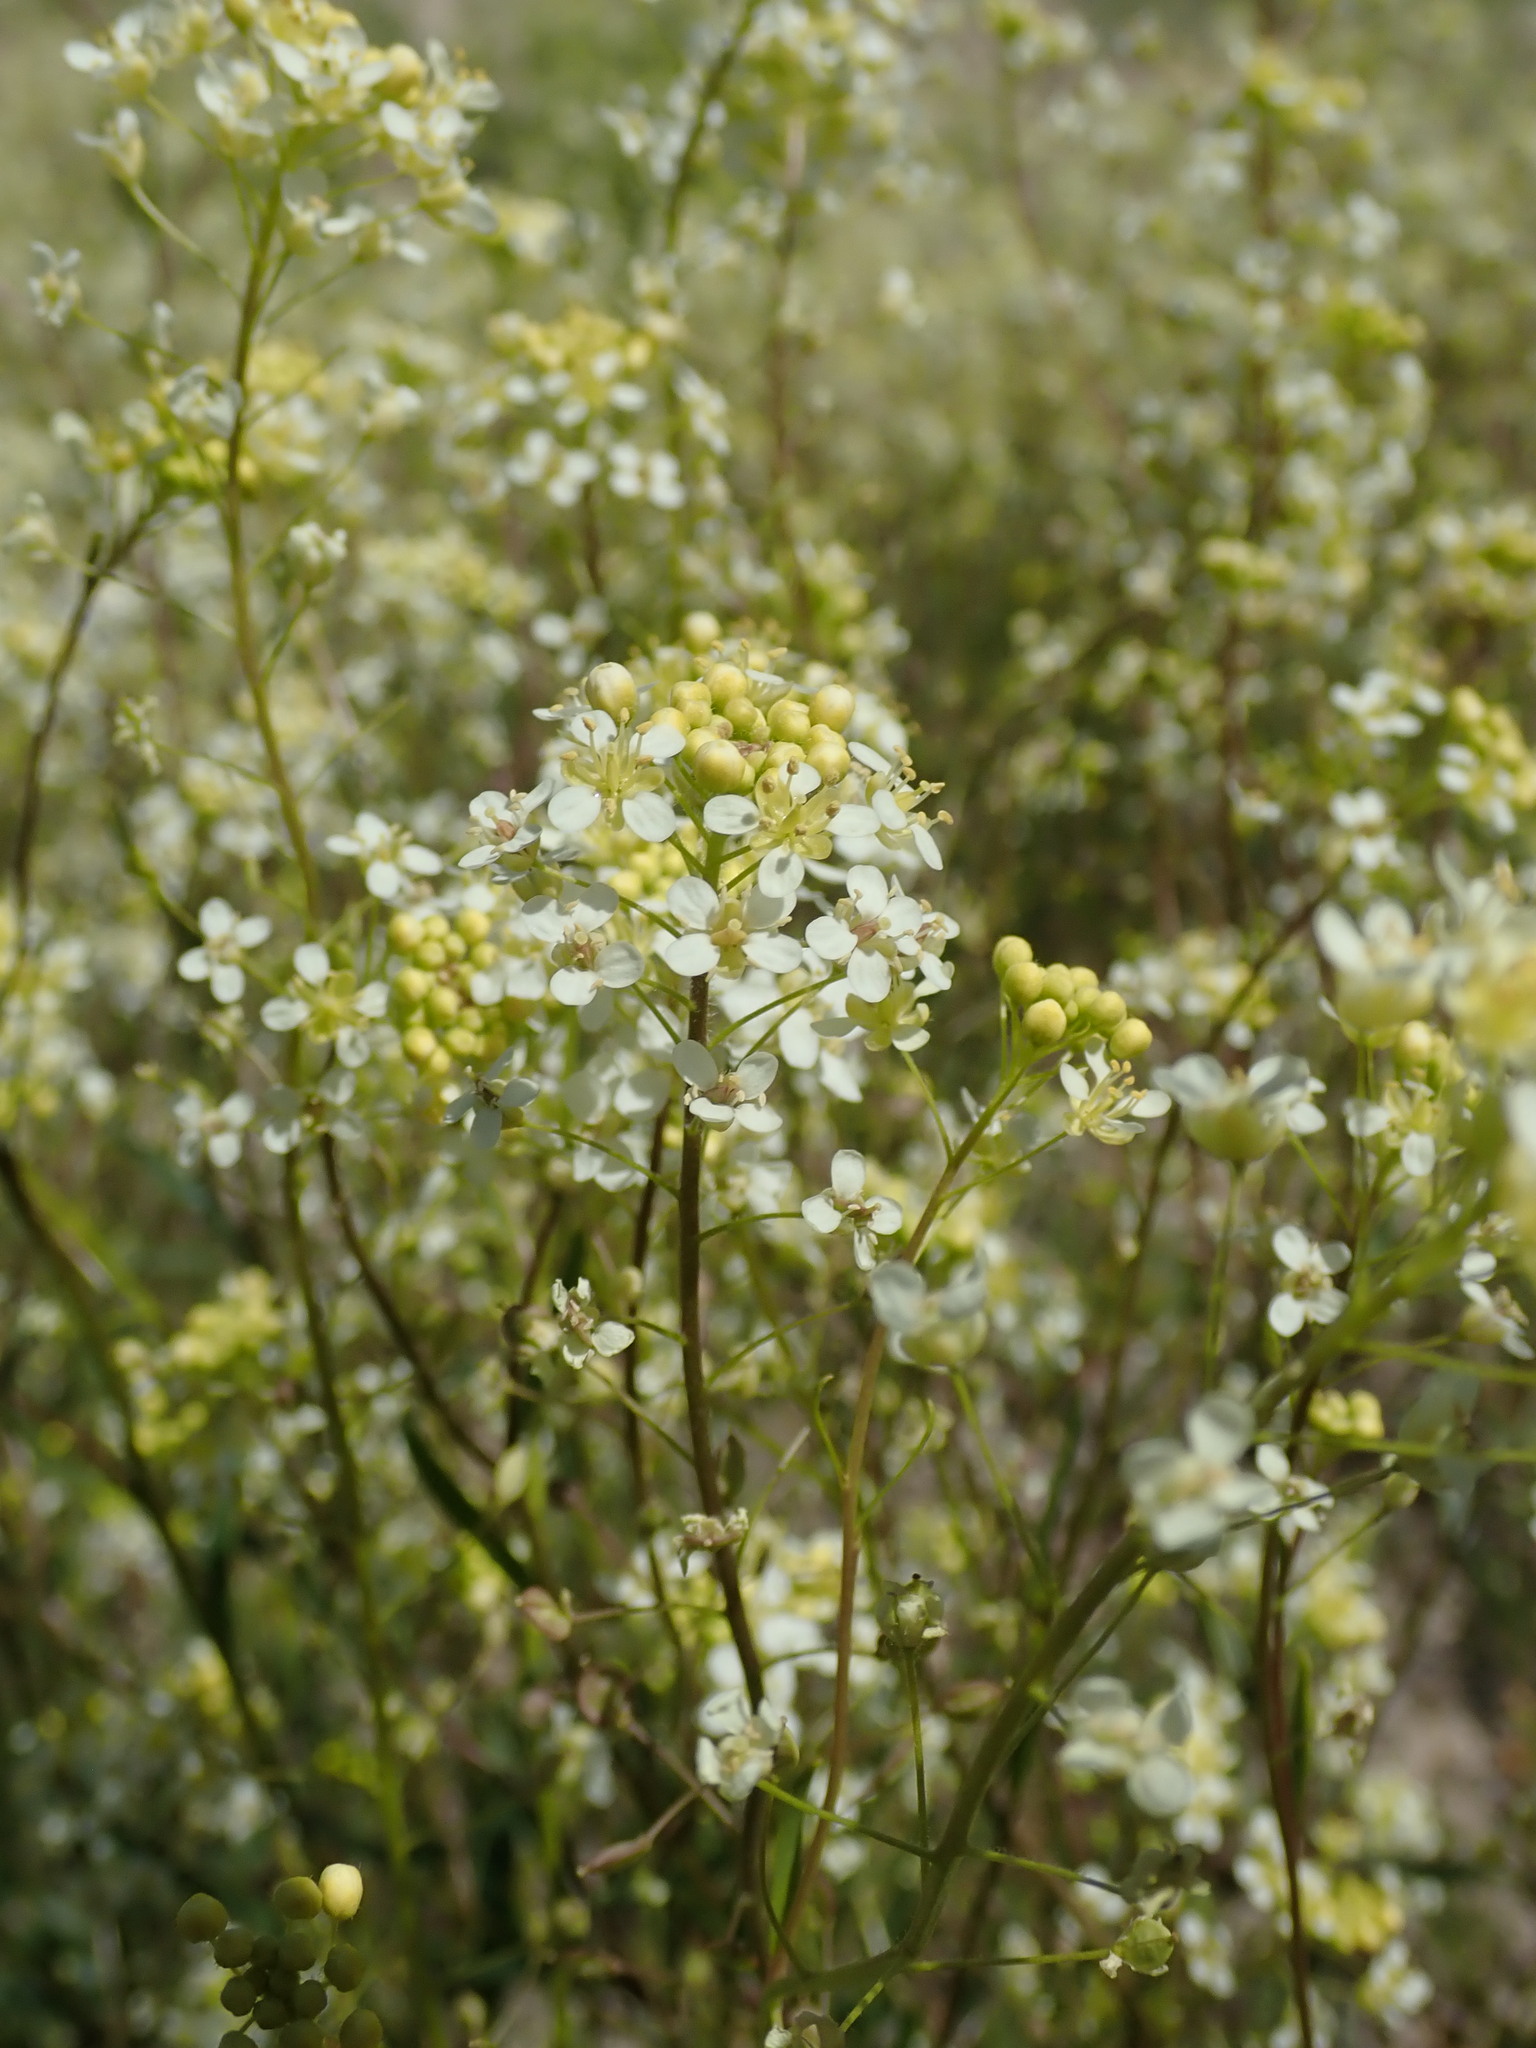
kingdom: Plantae
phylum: Tracheophyta
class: Magnoliopsida
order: Brassicales
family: Brassicaceae
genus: Lepidium
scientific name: Lepidium jaredii
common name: Jared's peppergrass
